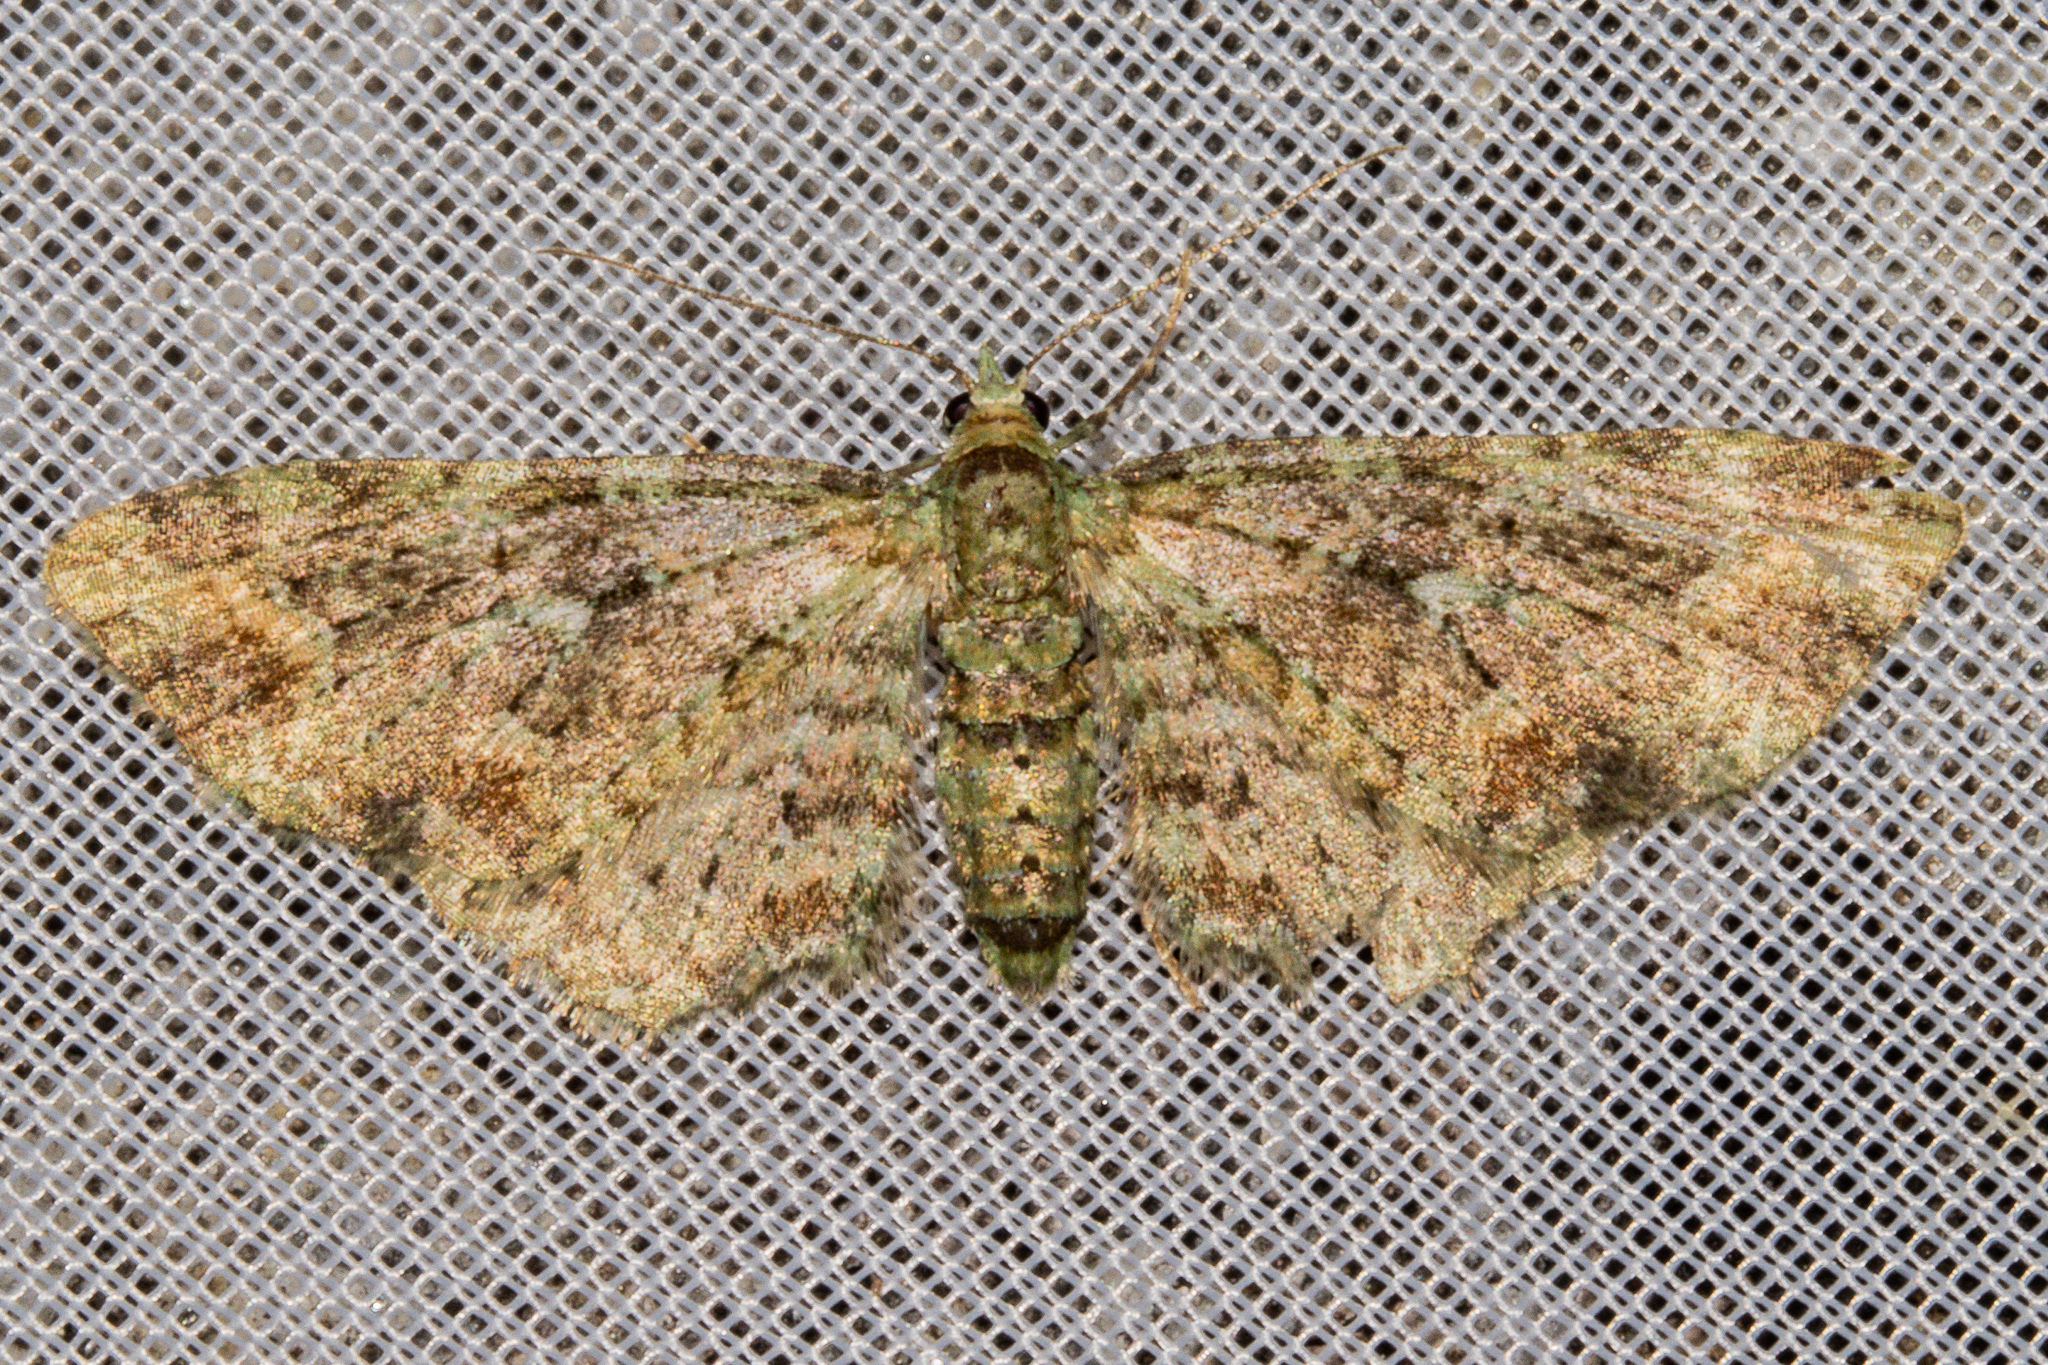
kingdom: Animalia
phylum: Arthropoda
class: Insecta
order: Lepidoptera
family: Geometridae
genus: Idaea
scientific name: Idaea mutanda
